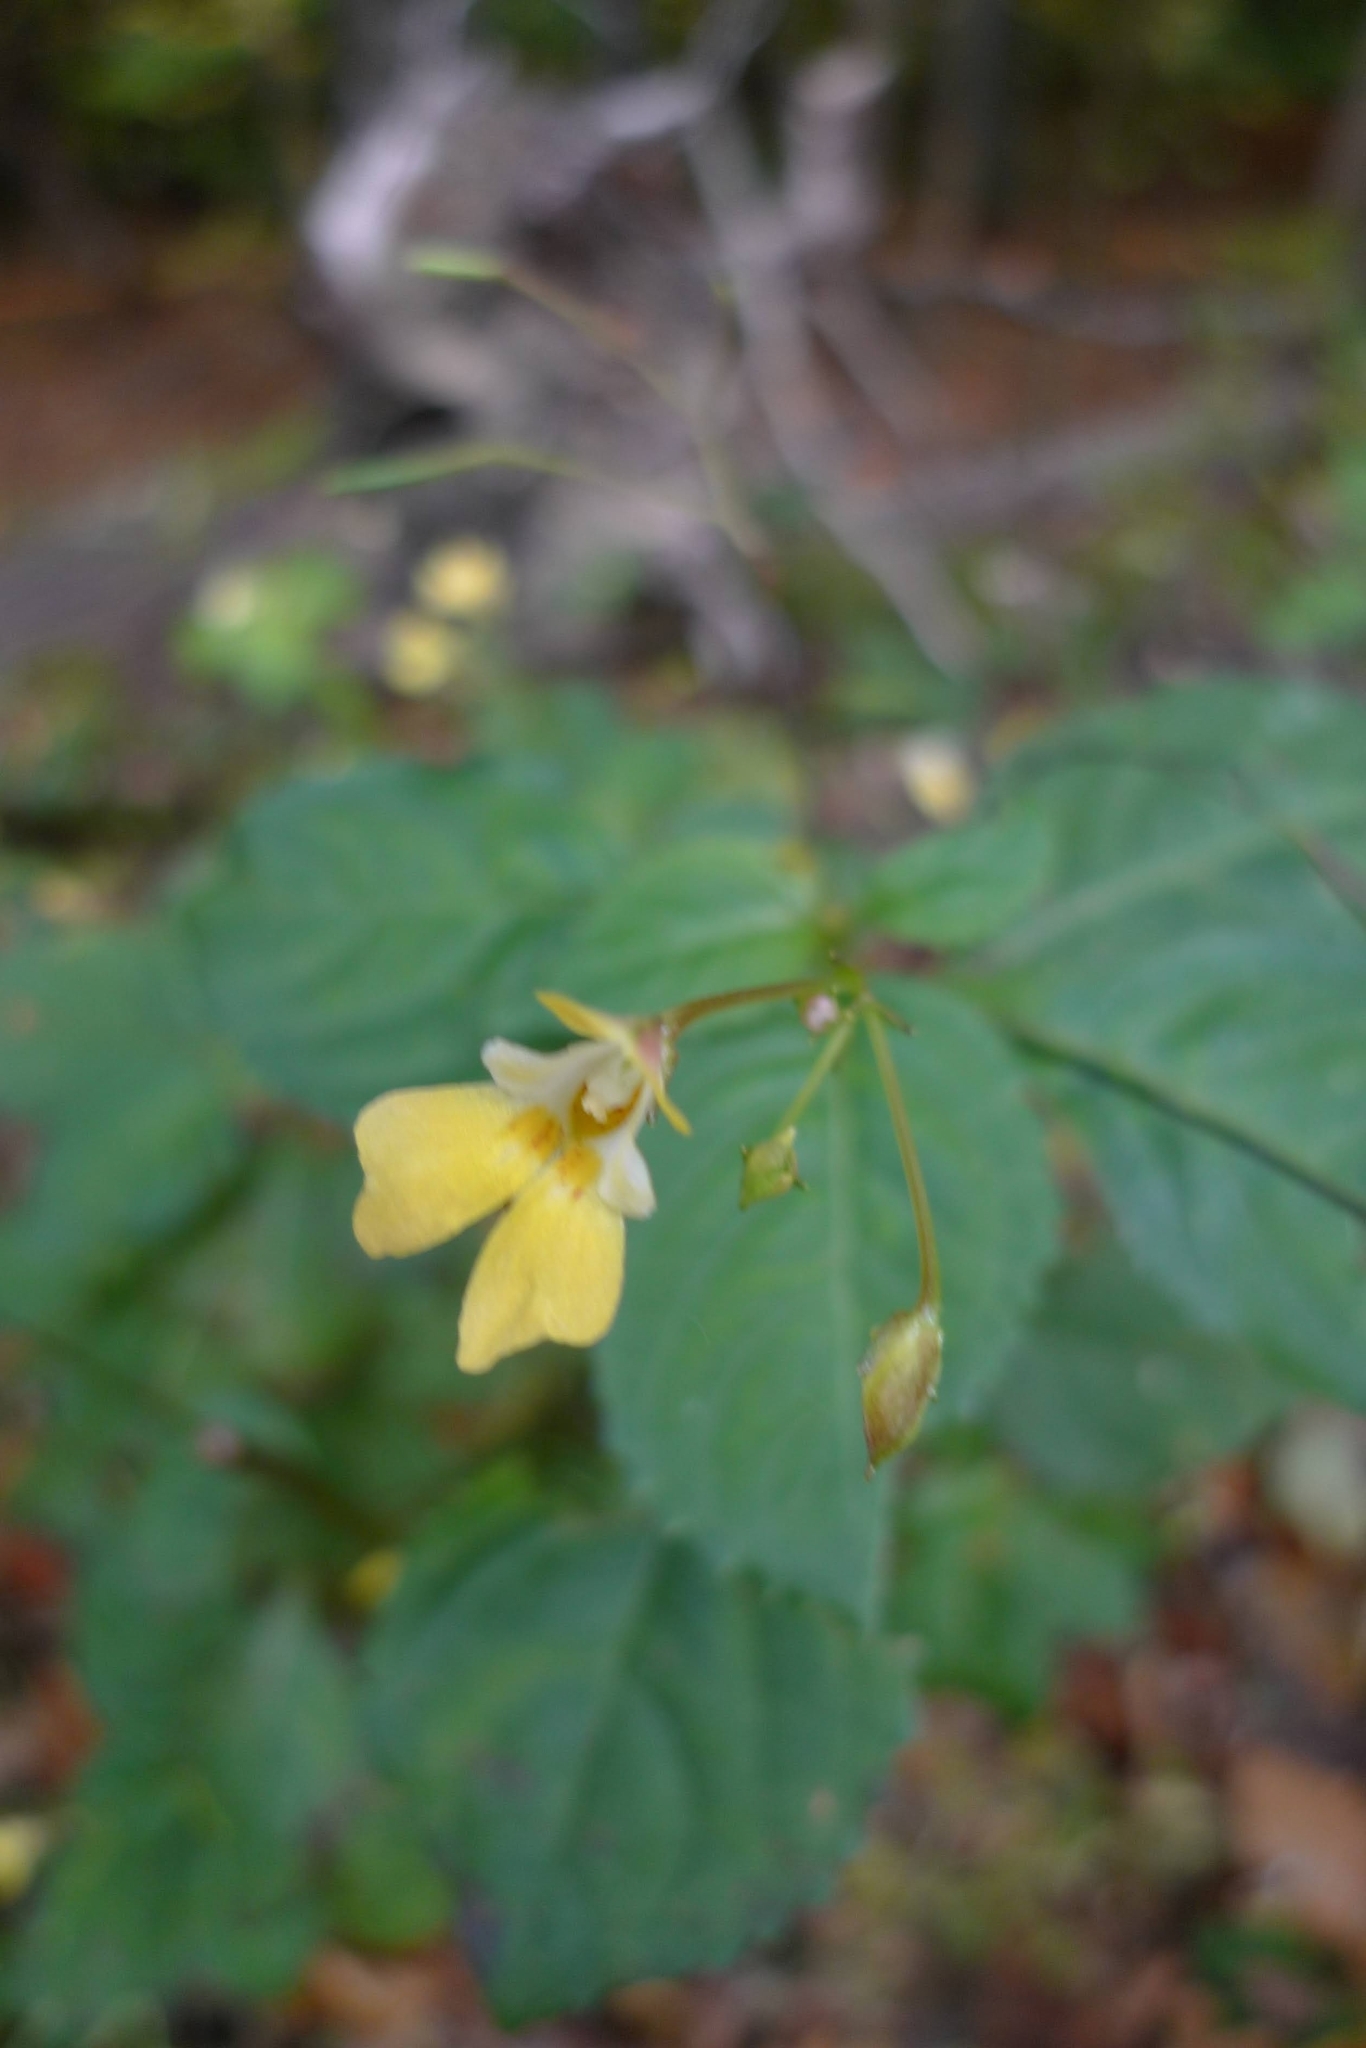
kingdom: Plantae
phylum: Tracheophyta
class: Magnoliopsida
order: Ericales
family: Balsaminaceae
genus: Impatiens
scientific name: Impatiens parviflora
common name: Small balsam
